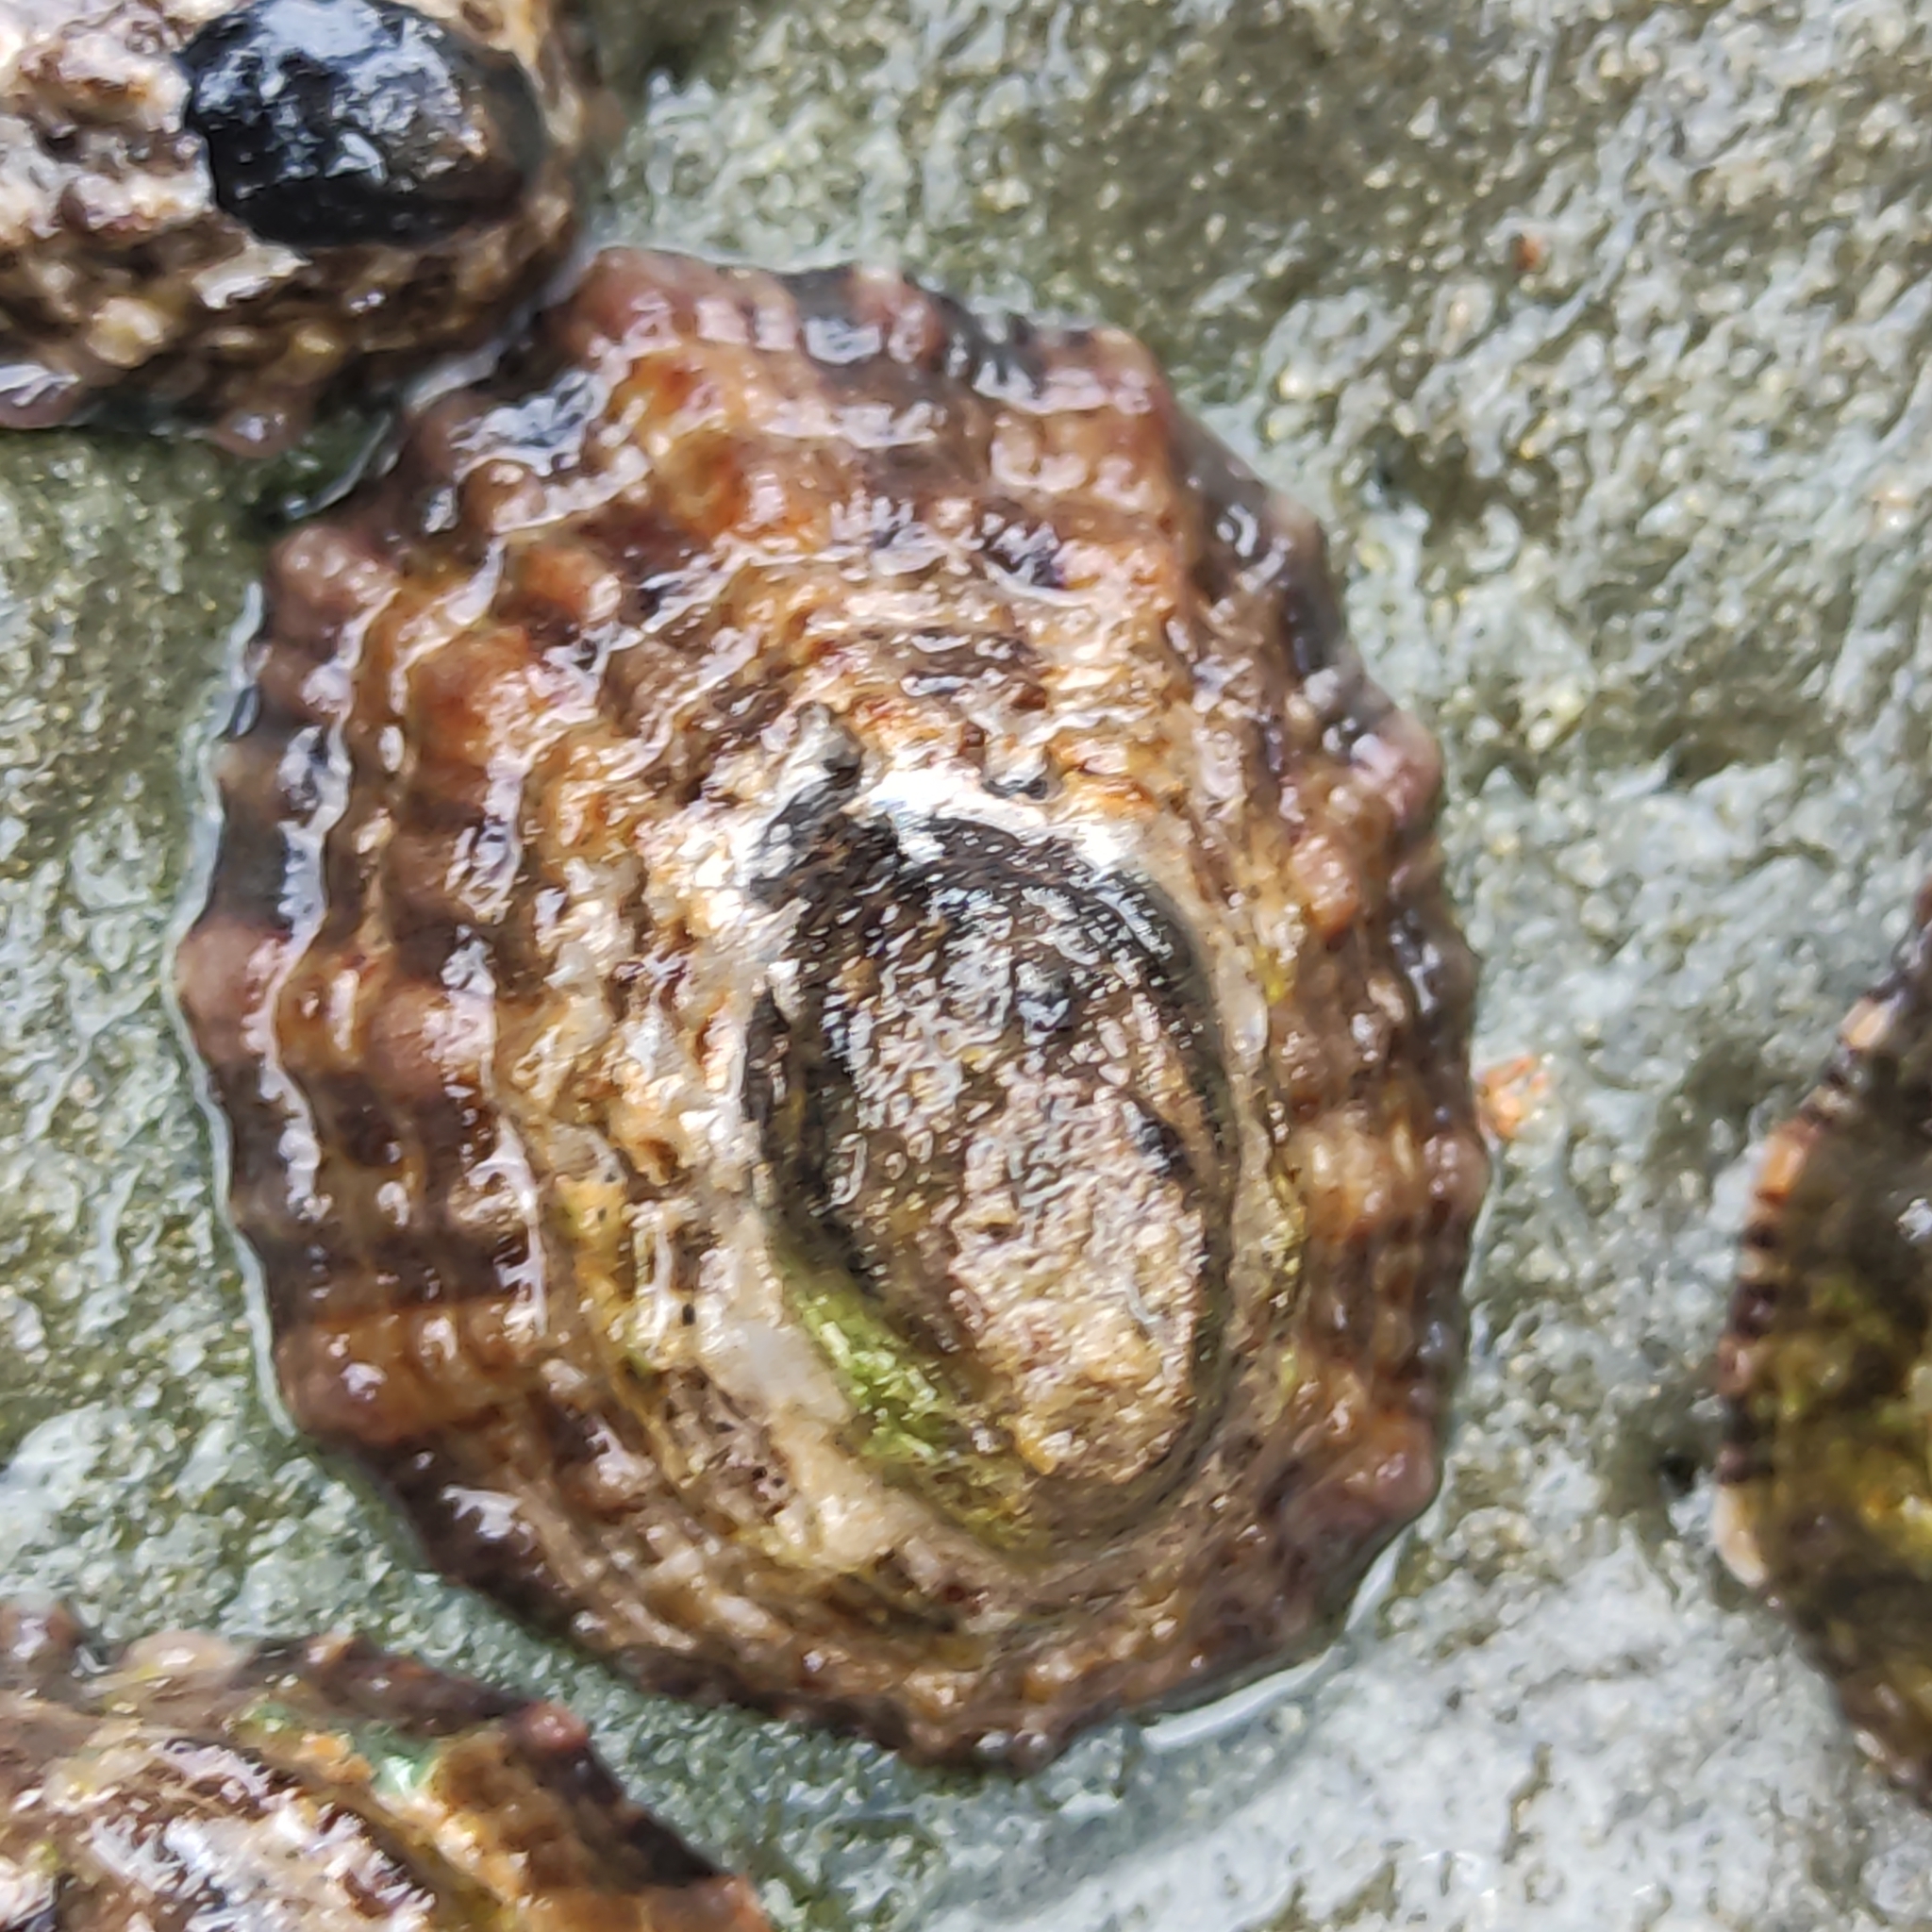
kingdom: Animalia
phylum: Mollusca
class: Gastropoda
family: Nacellidae
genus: Cellana
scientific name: Cellana ornata
